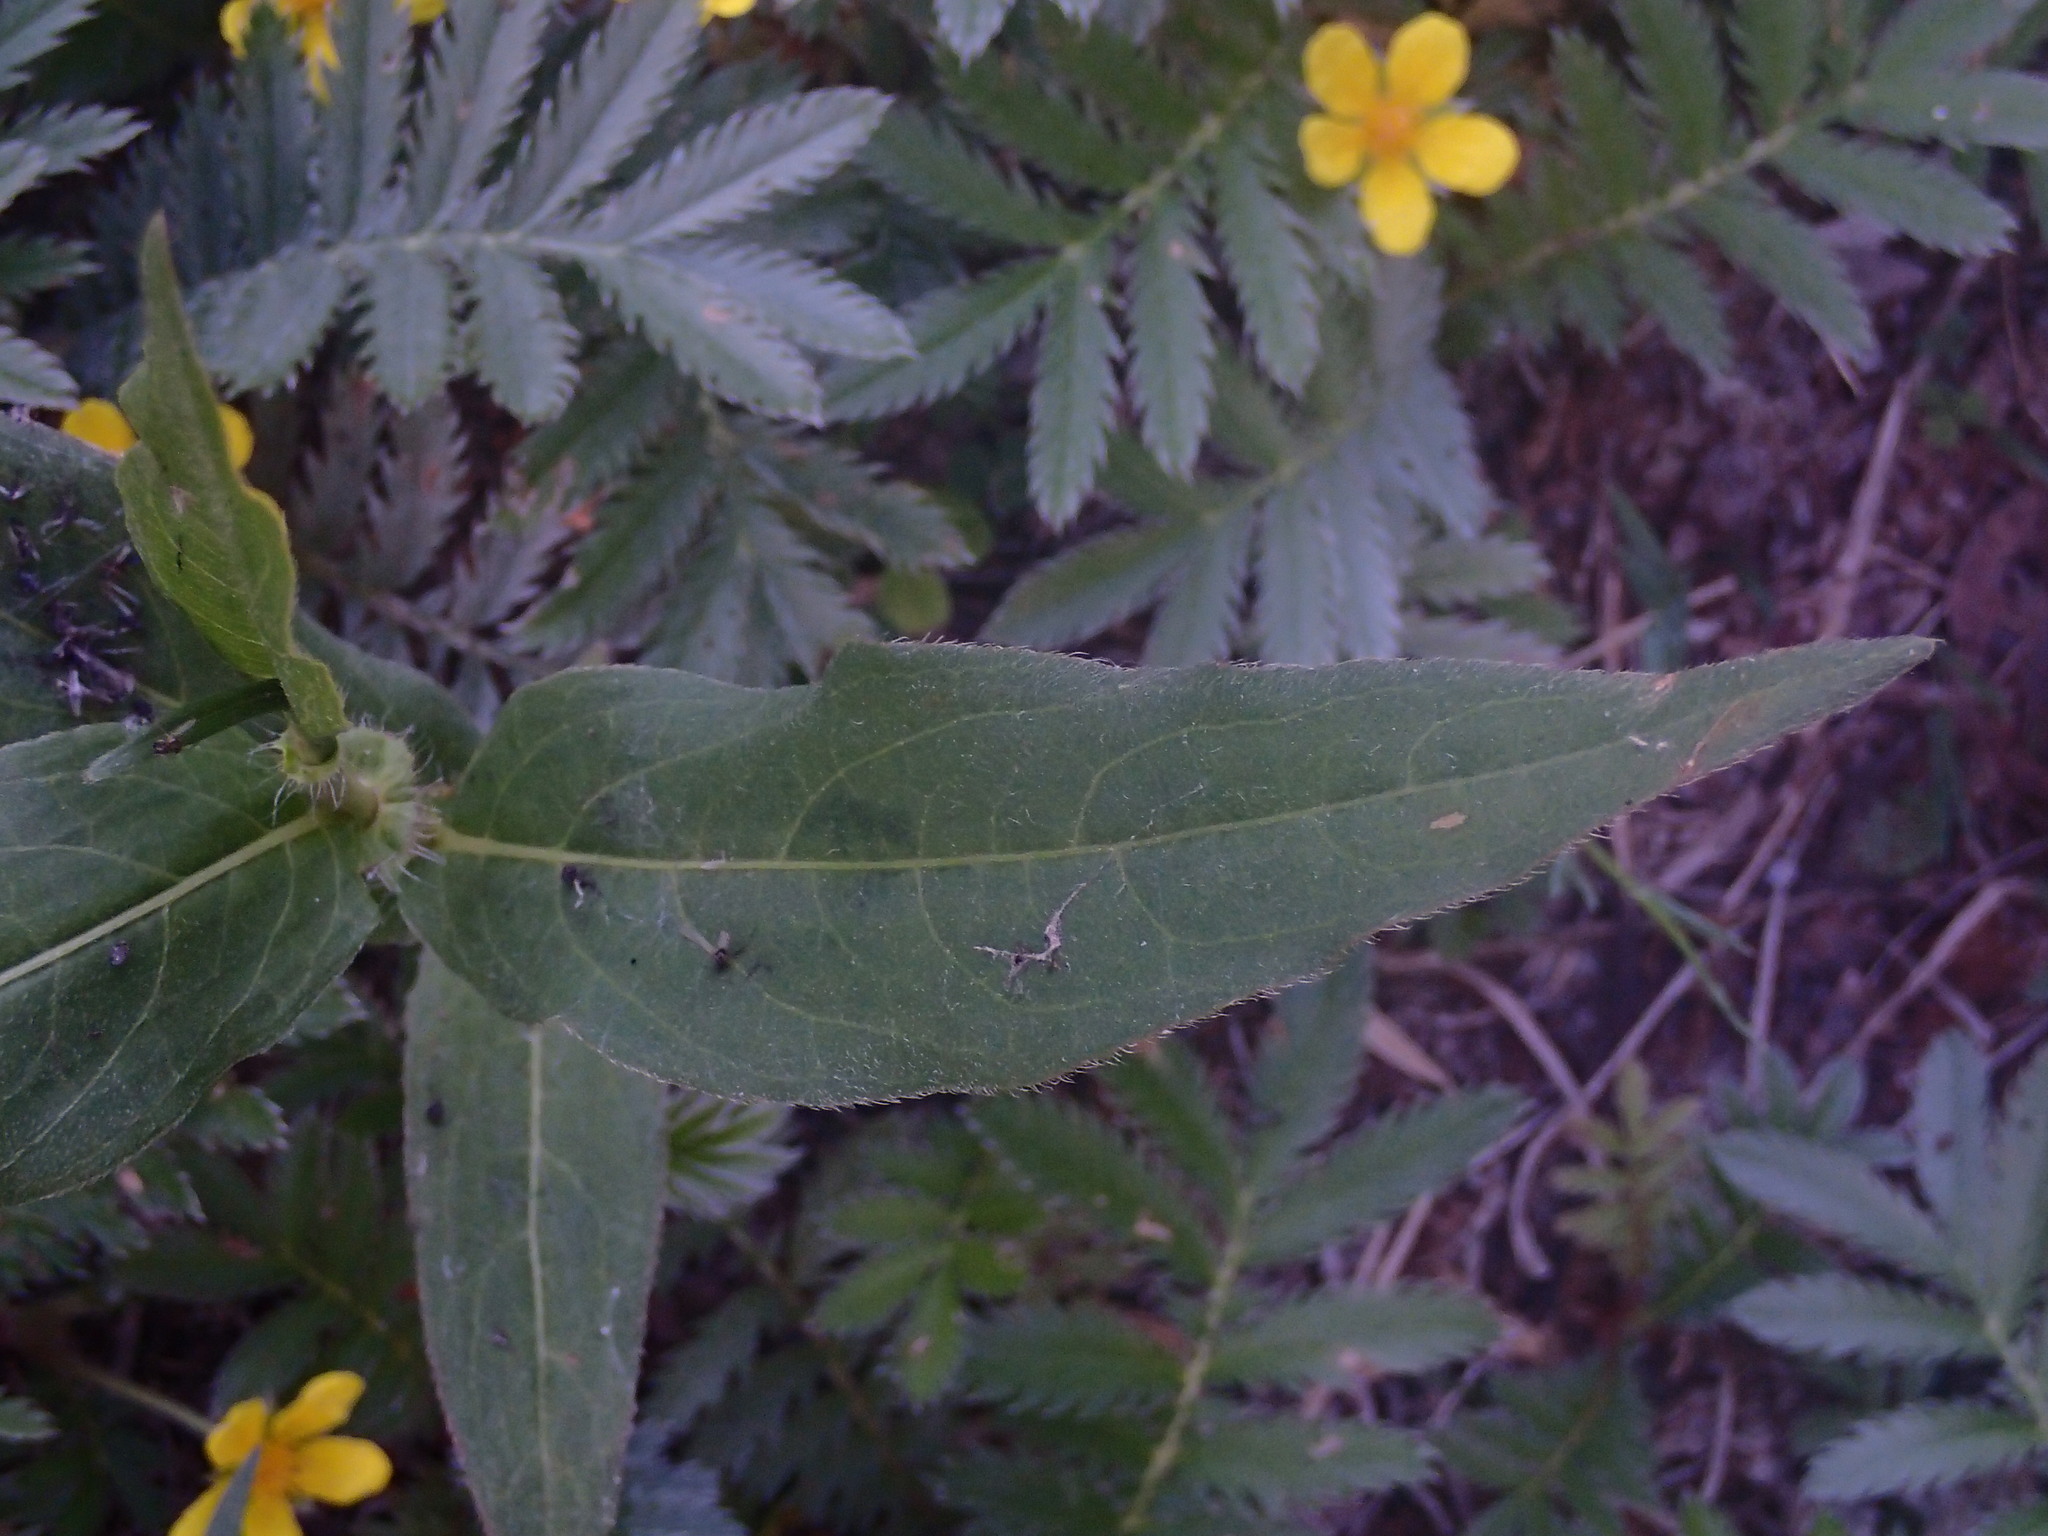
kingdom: Plantae
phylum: Tracheophyta
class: Magnoliopsida
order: Caryophyllales
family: Polygonaceae
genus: Persicaria
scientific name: Persicaria amphibia
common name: Amphibious bistort
